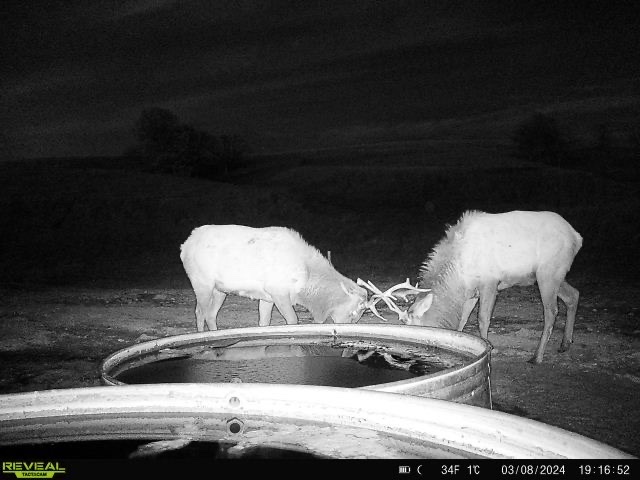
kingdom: Animalia
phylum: Chordata
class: Mammalia
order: Artiodactyla
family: Cervidae
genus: Cervus
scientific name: Cervus elaphus
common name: Red deer
